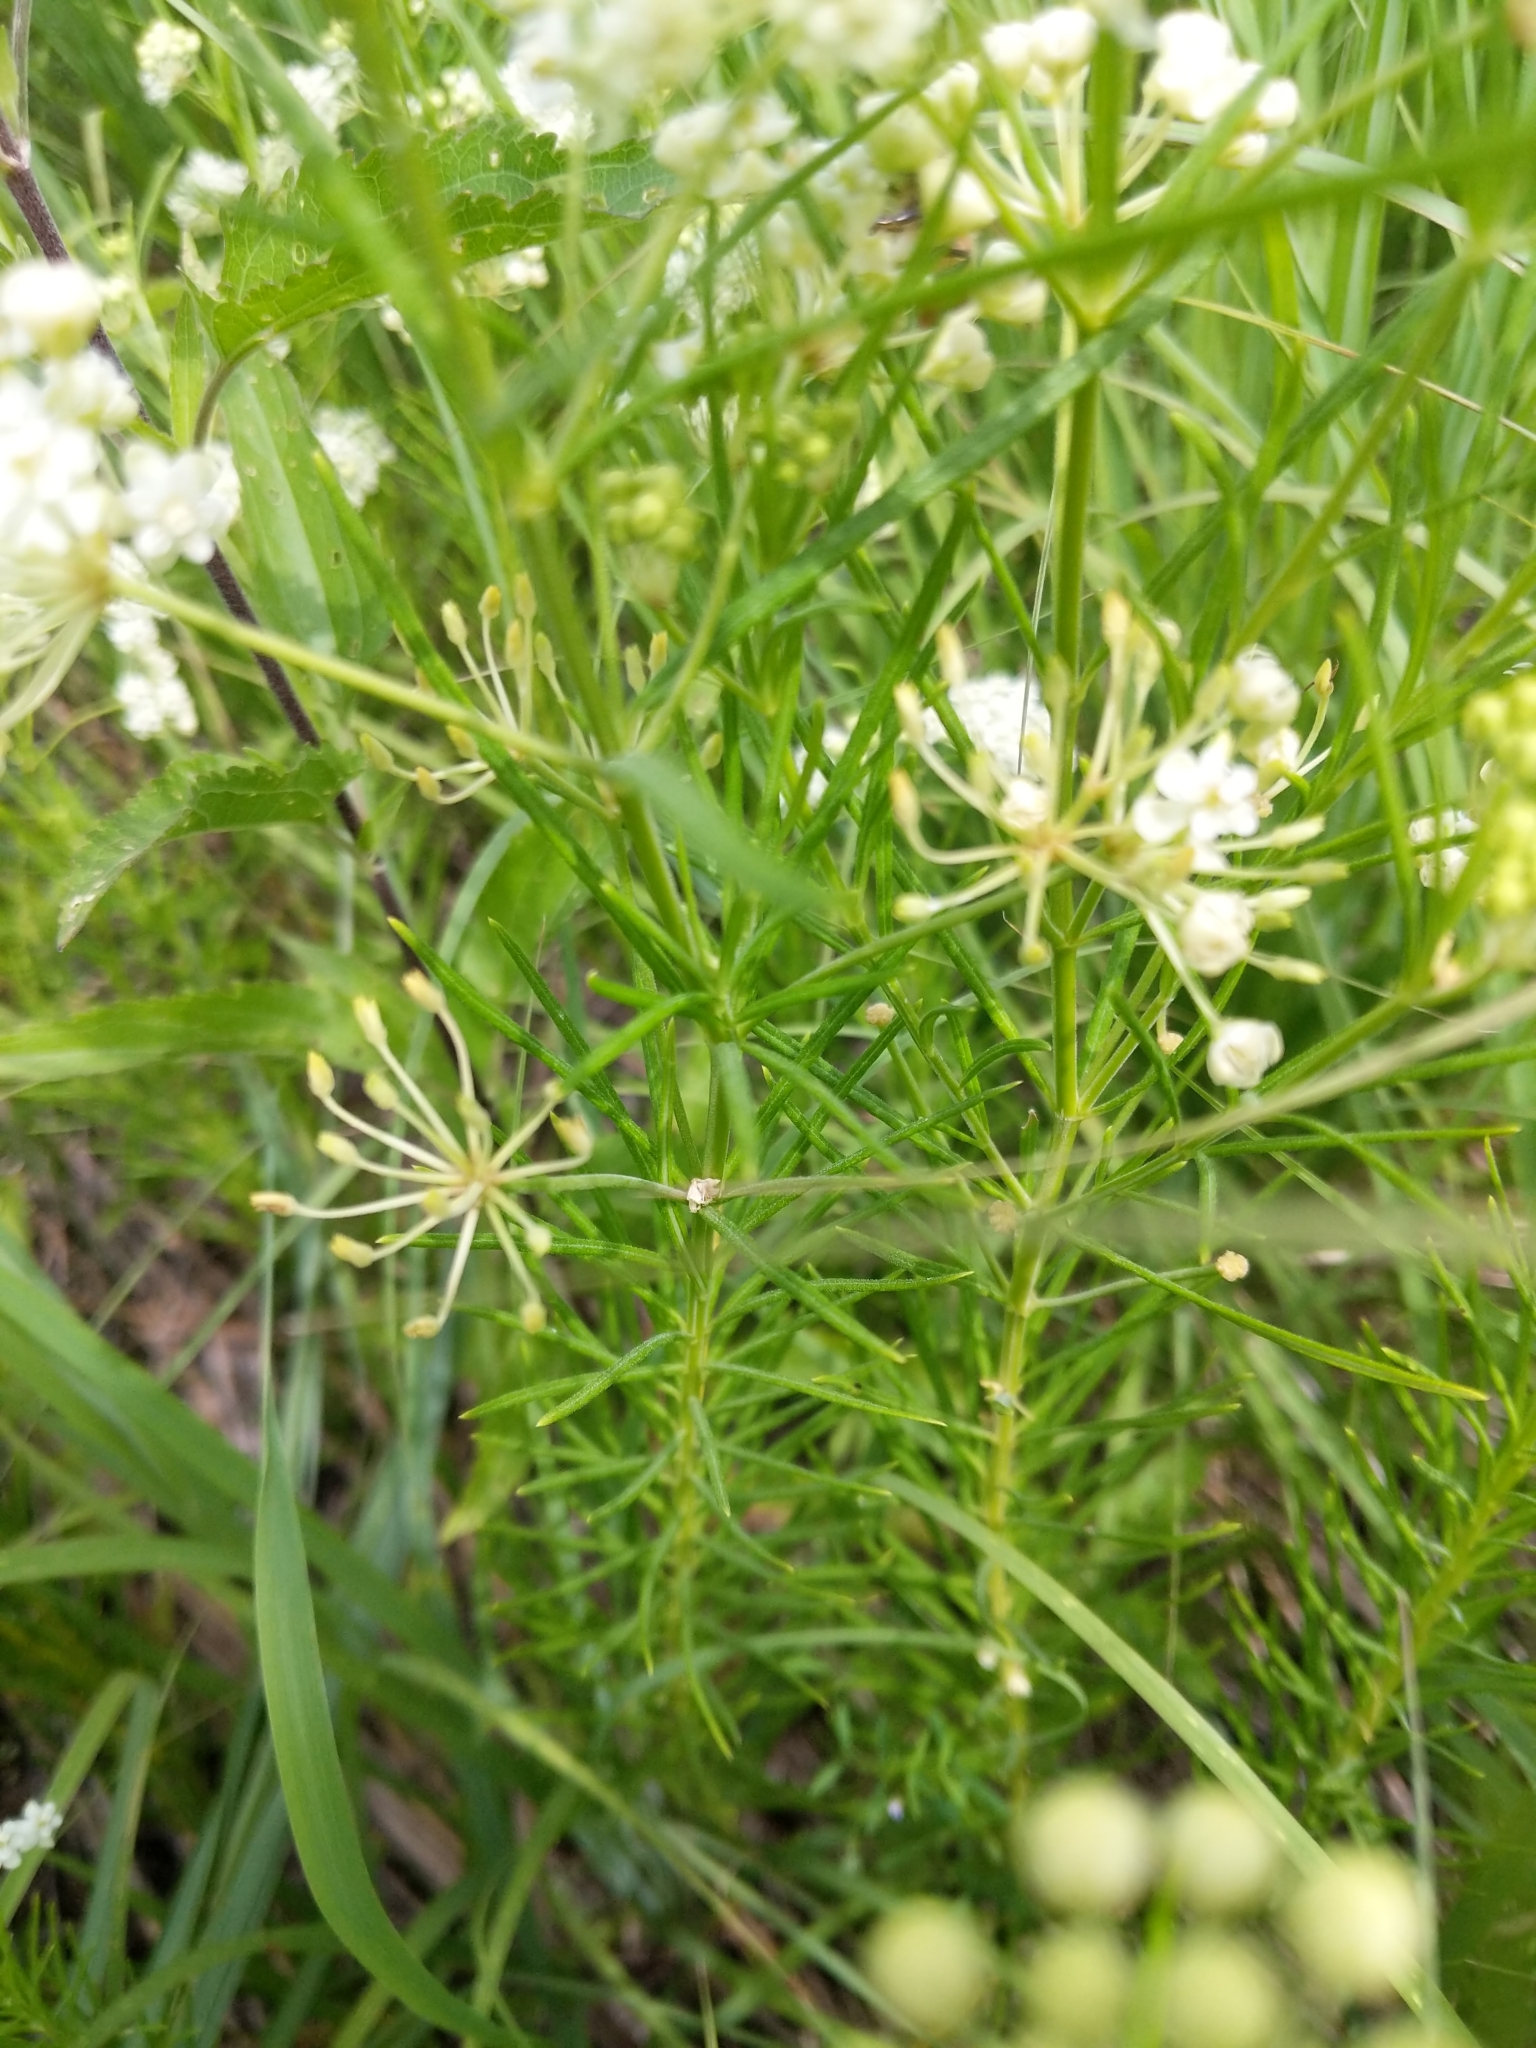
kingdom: Plantae
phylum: Tracheophyta
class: Magnoliopsida
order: Gentianales
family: Apocynaceae
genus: Asclepias
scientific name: Asclepias verticillata
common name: Eastern whorled milkweed
